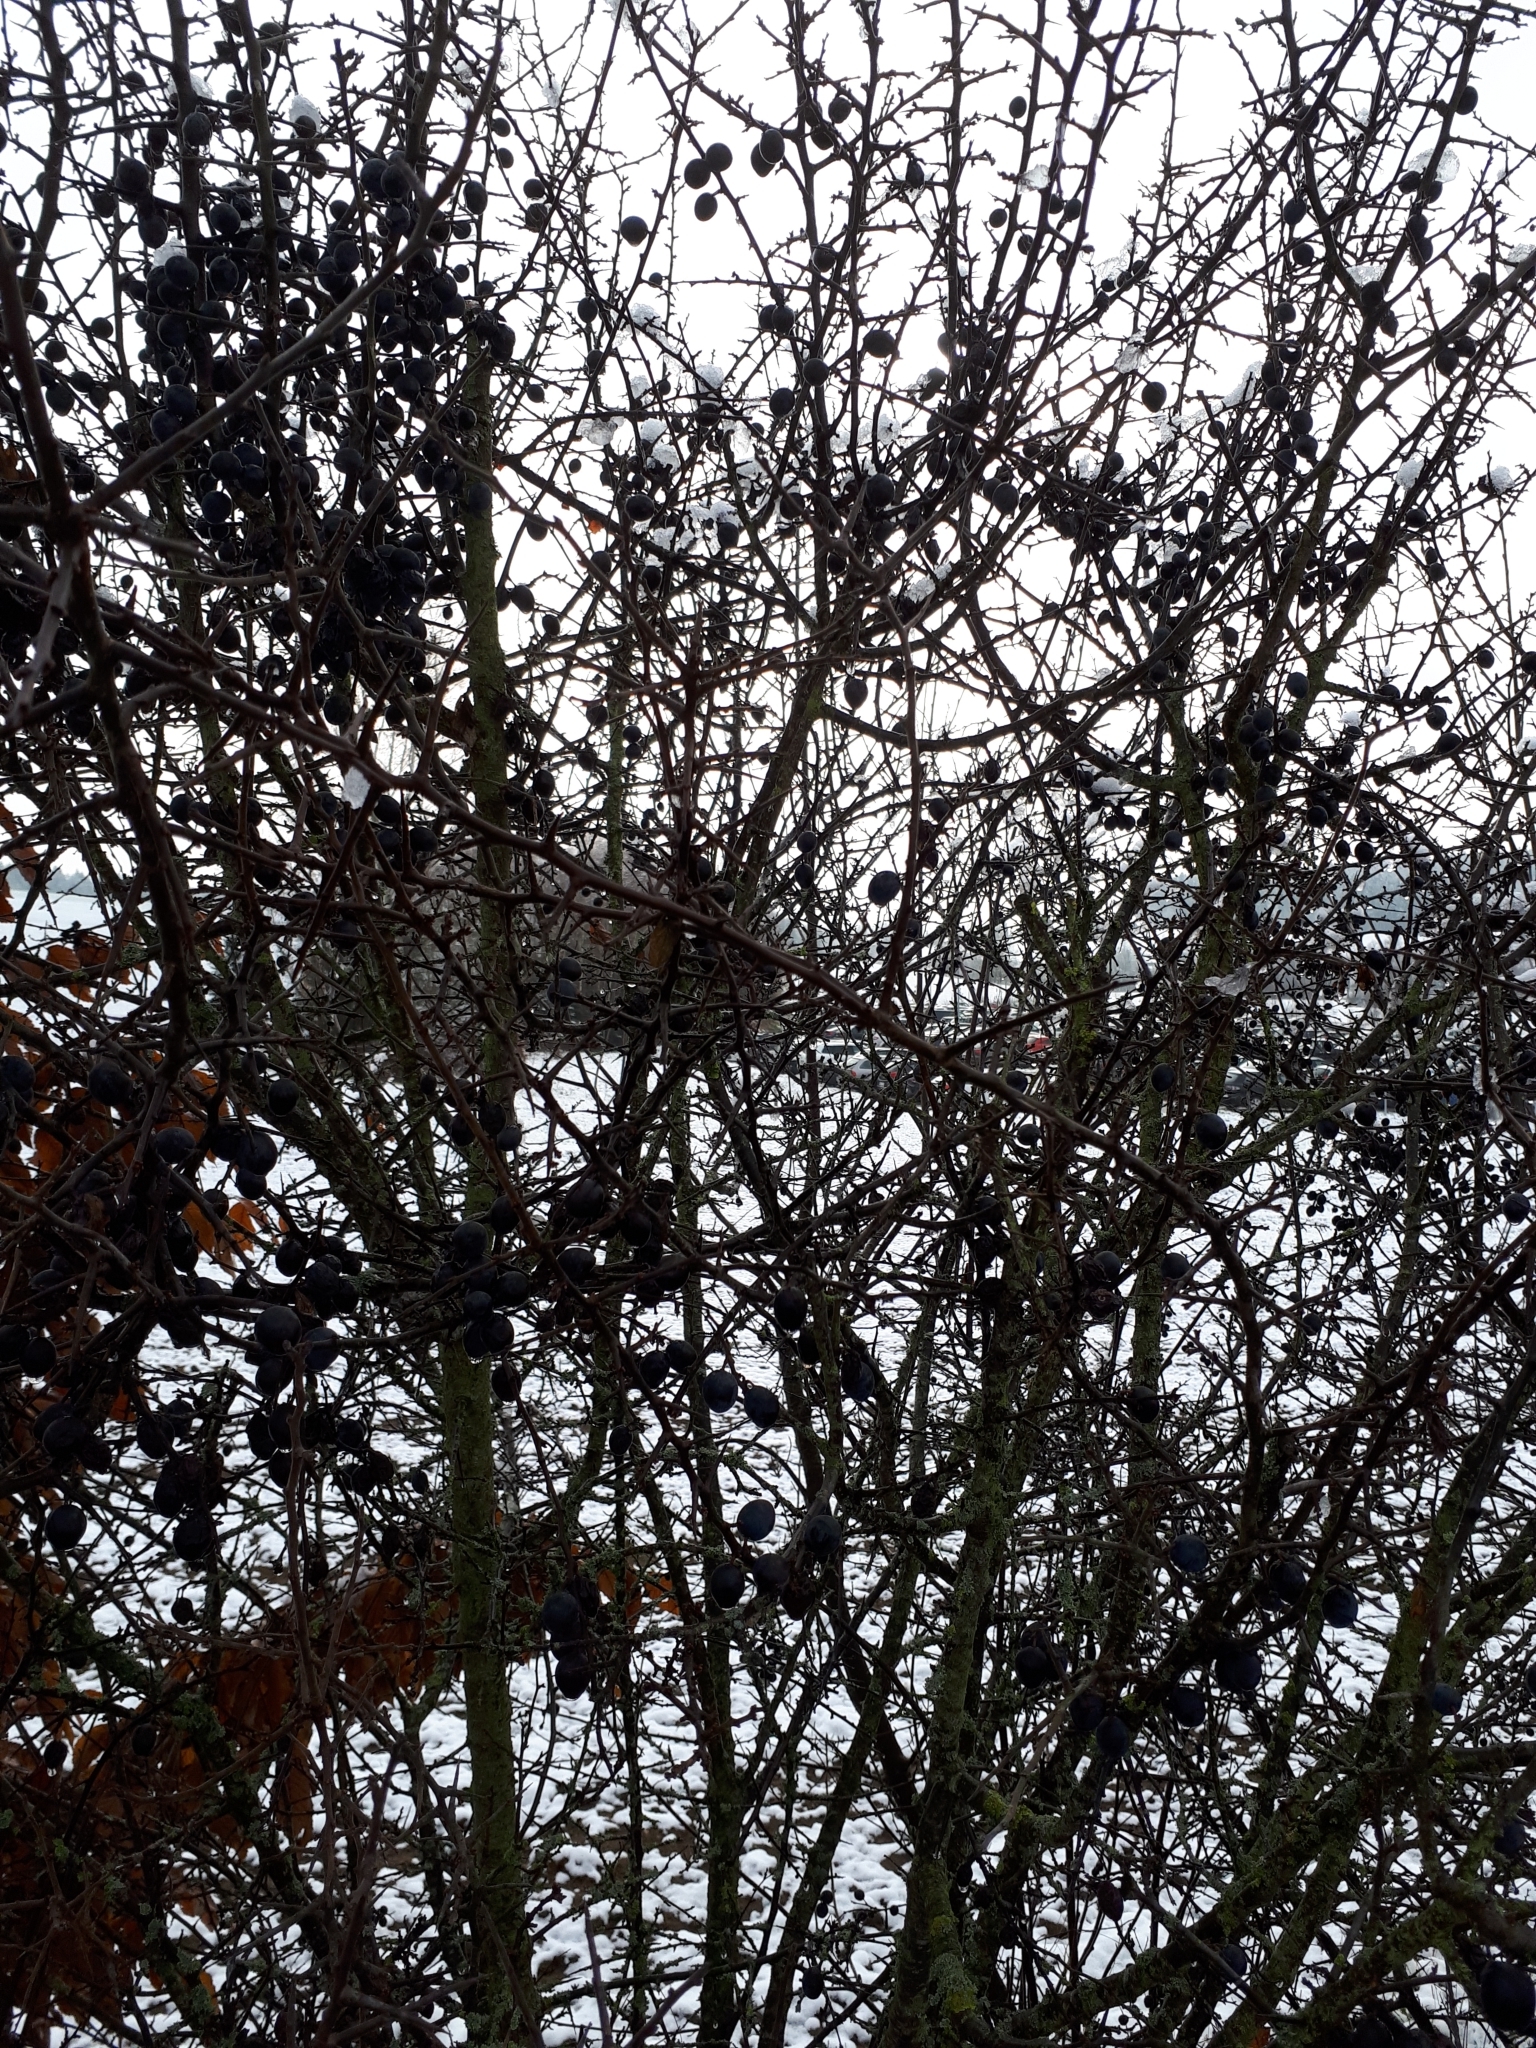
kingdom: Plantae
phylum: Tracheophyta
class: Magnoliopsida
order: Rosales
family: Rosaceae
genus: Prunus
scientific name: Prunus spinosa
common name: Blackthorn
